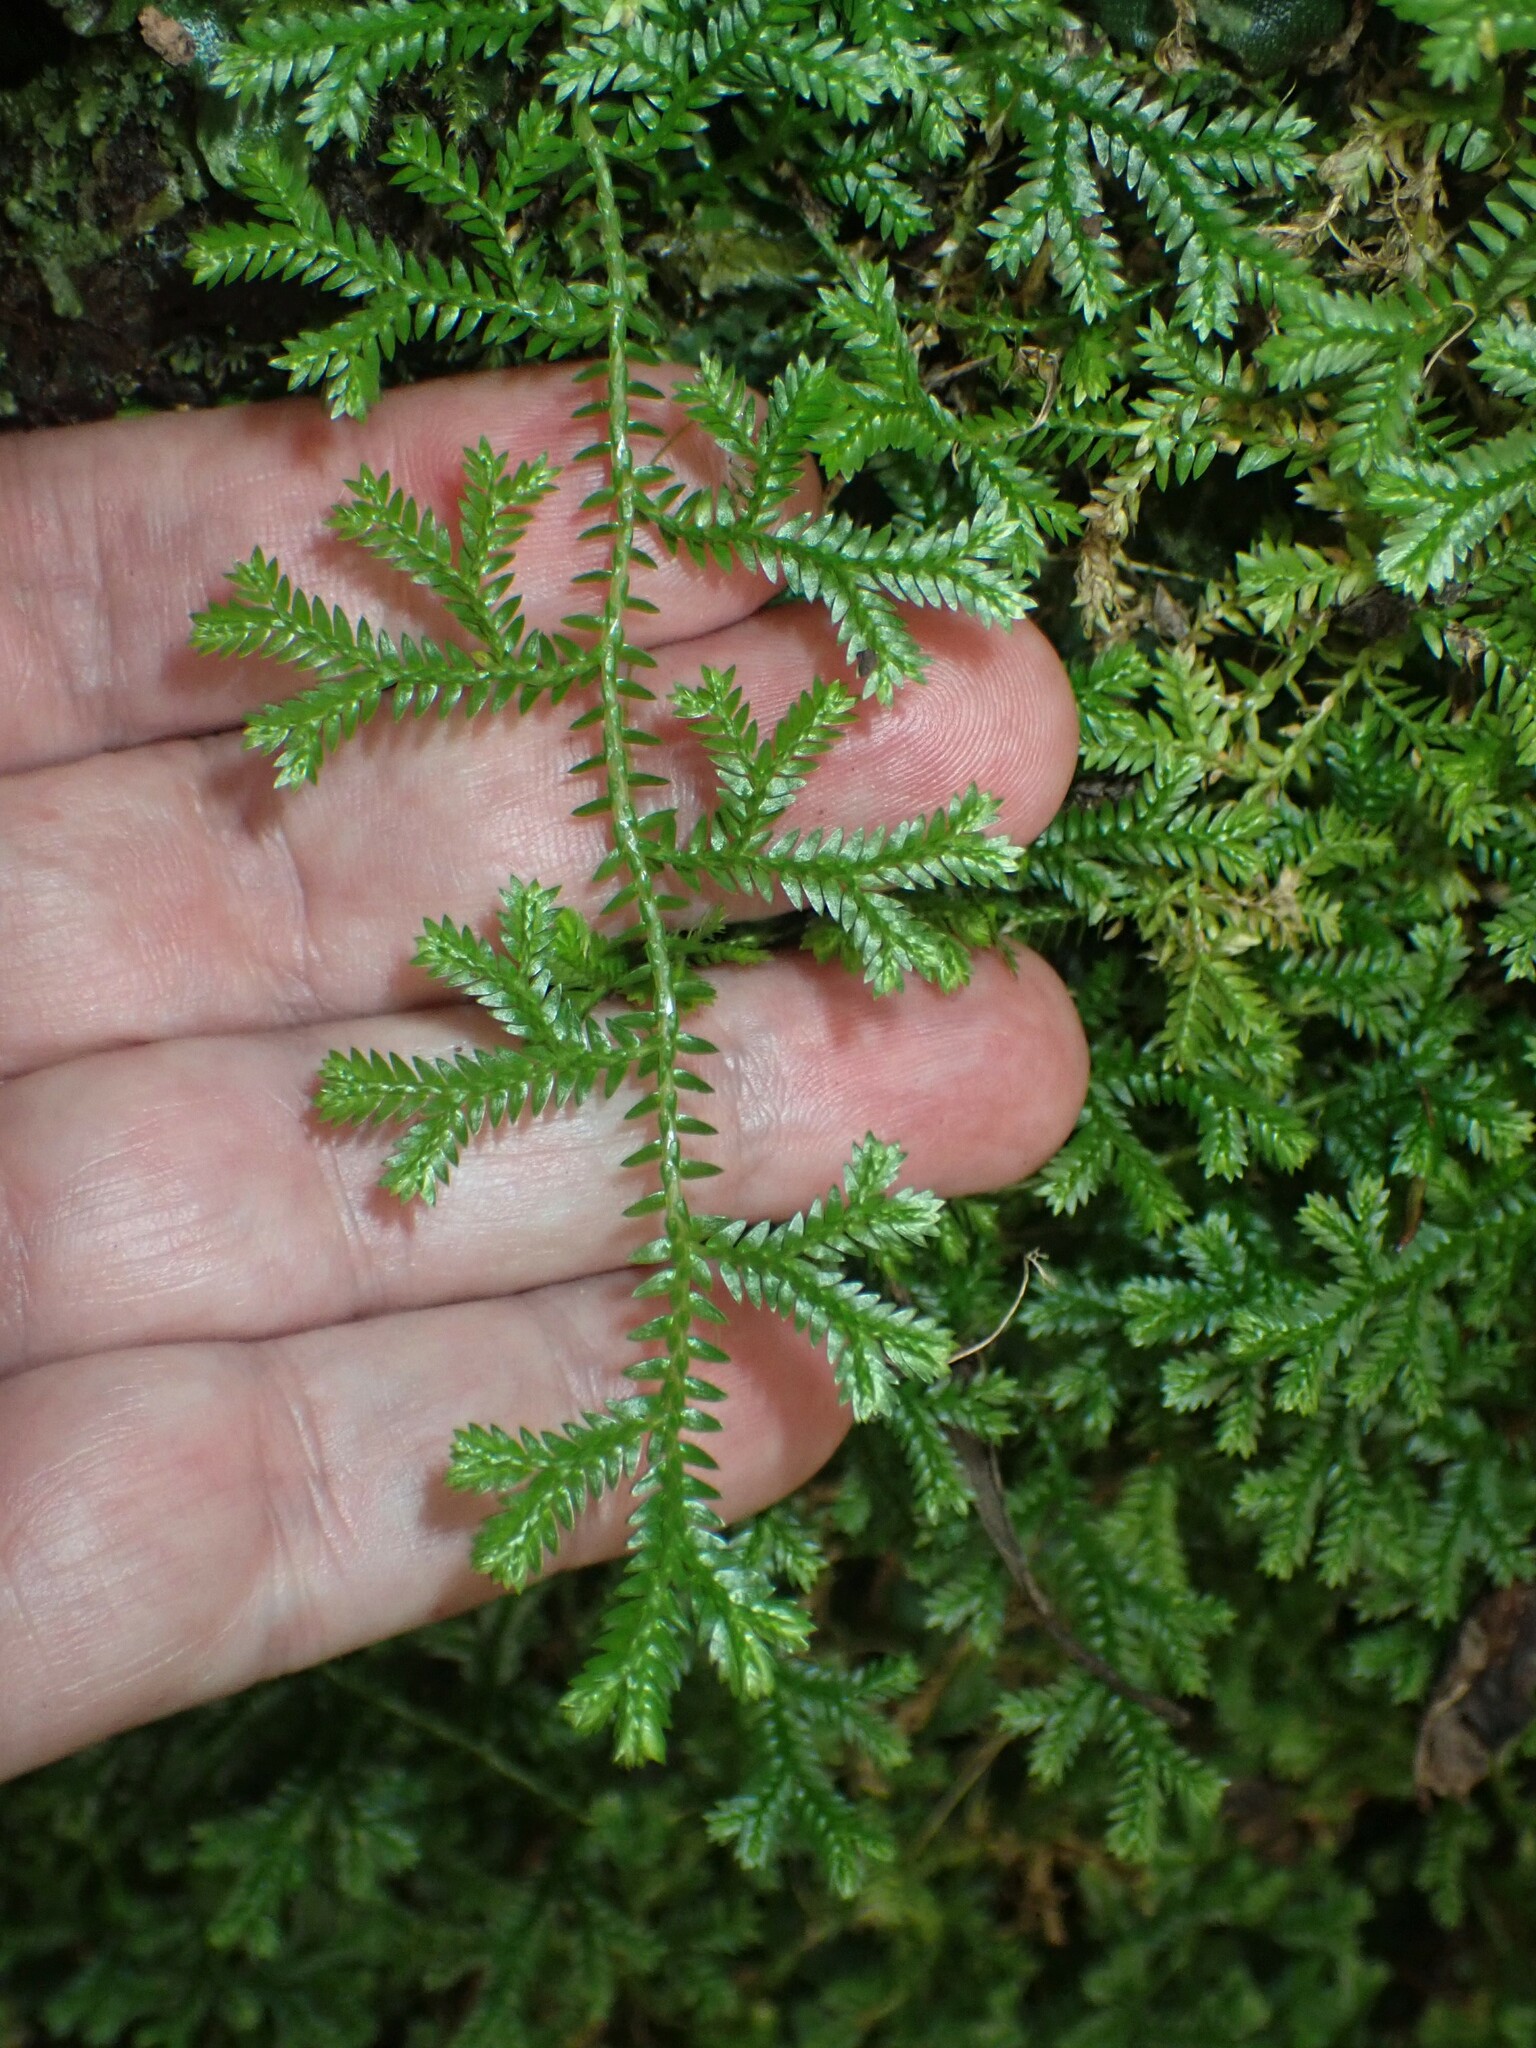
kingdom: Plantae
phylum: Tracheophyta
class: Lycopodiopsida
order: Selaginellales
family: Selaginellaceae
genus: Selaginella
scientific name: Selaginella kraussiana
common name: Krauss' spikemoss
